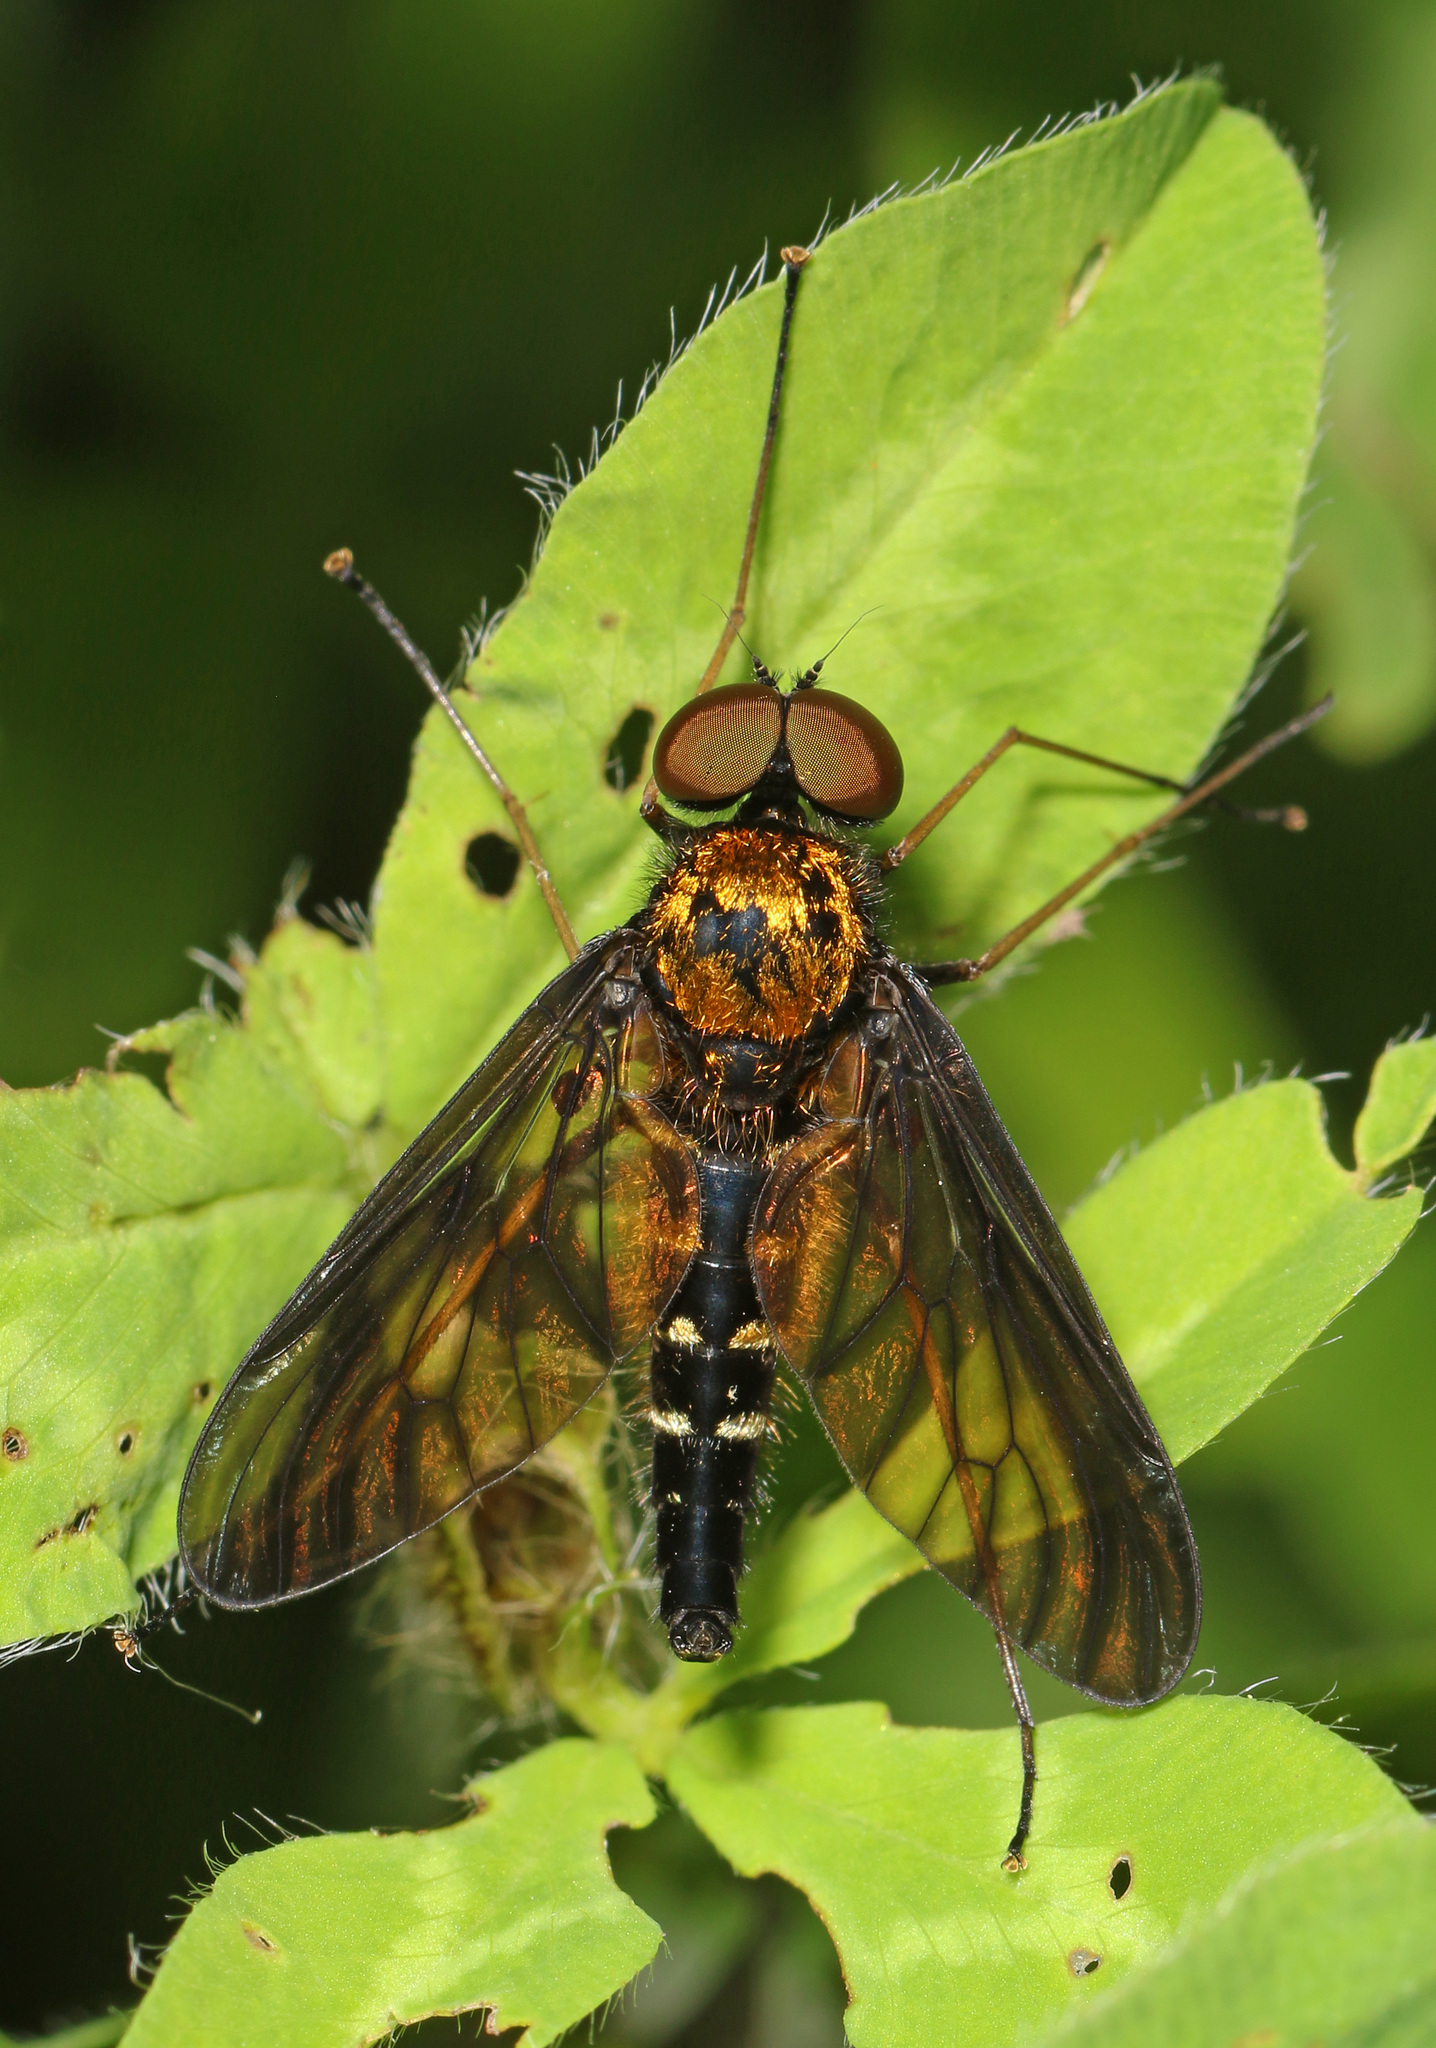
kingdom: Animalia
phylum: Arthropoda
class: Insecta
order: Diptera
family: Rhagionidae
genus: Chrysopilus
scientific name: Chrysopilus thoracicus
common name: Golden-backed snipe fly
